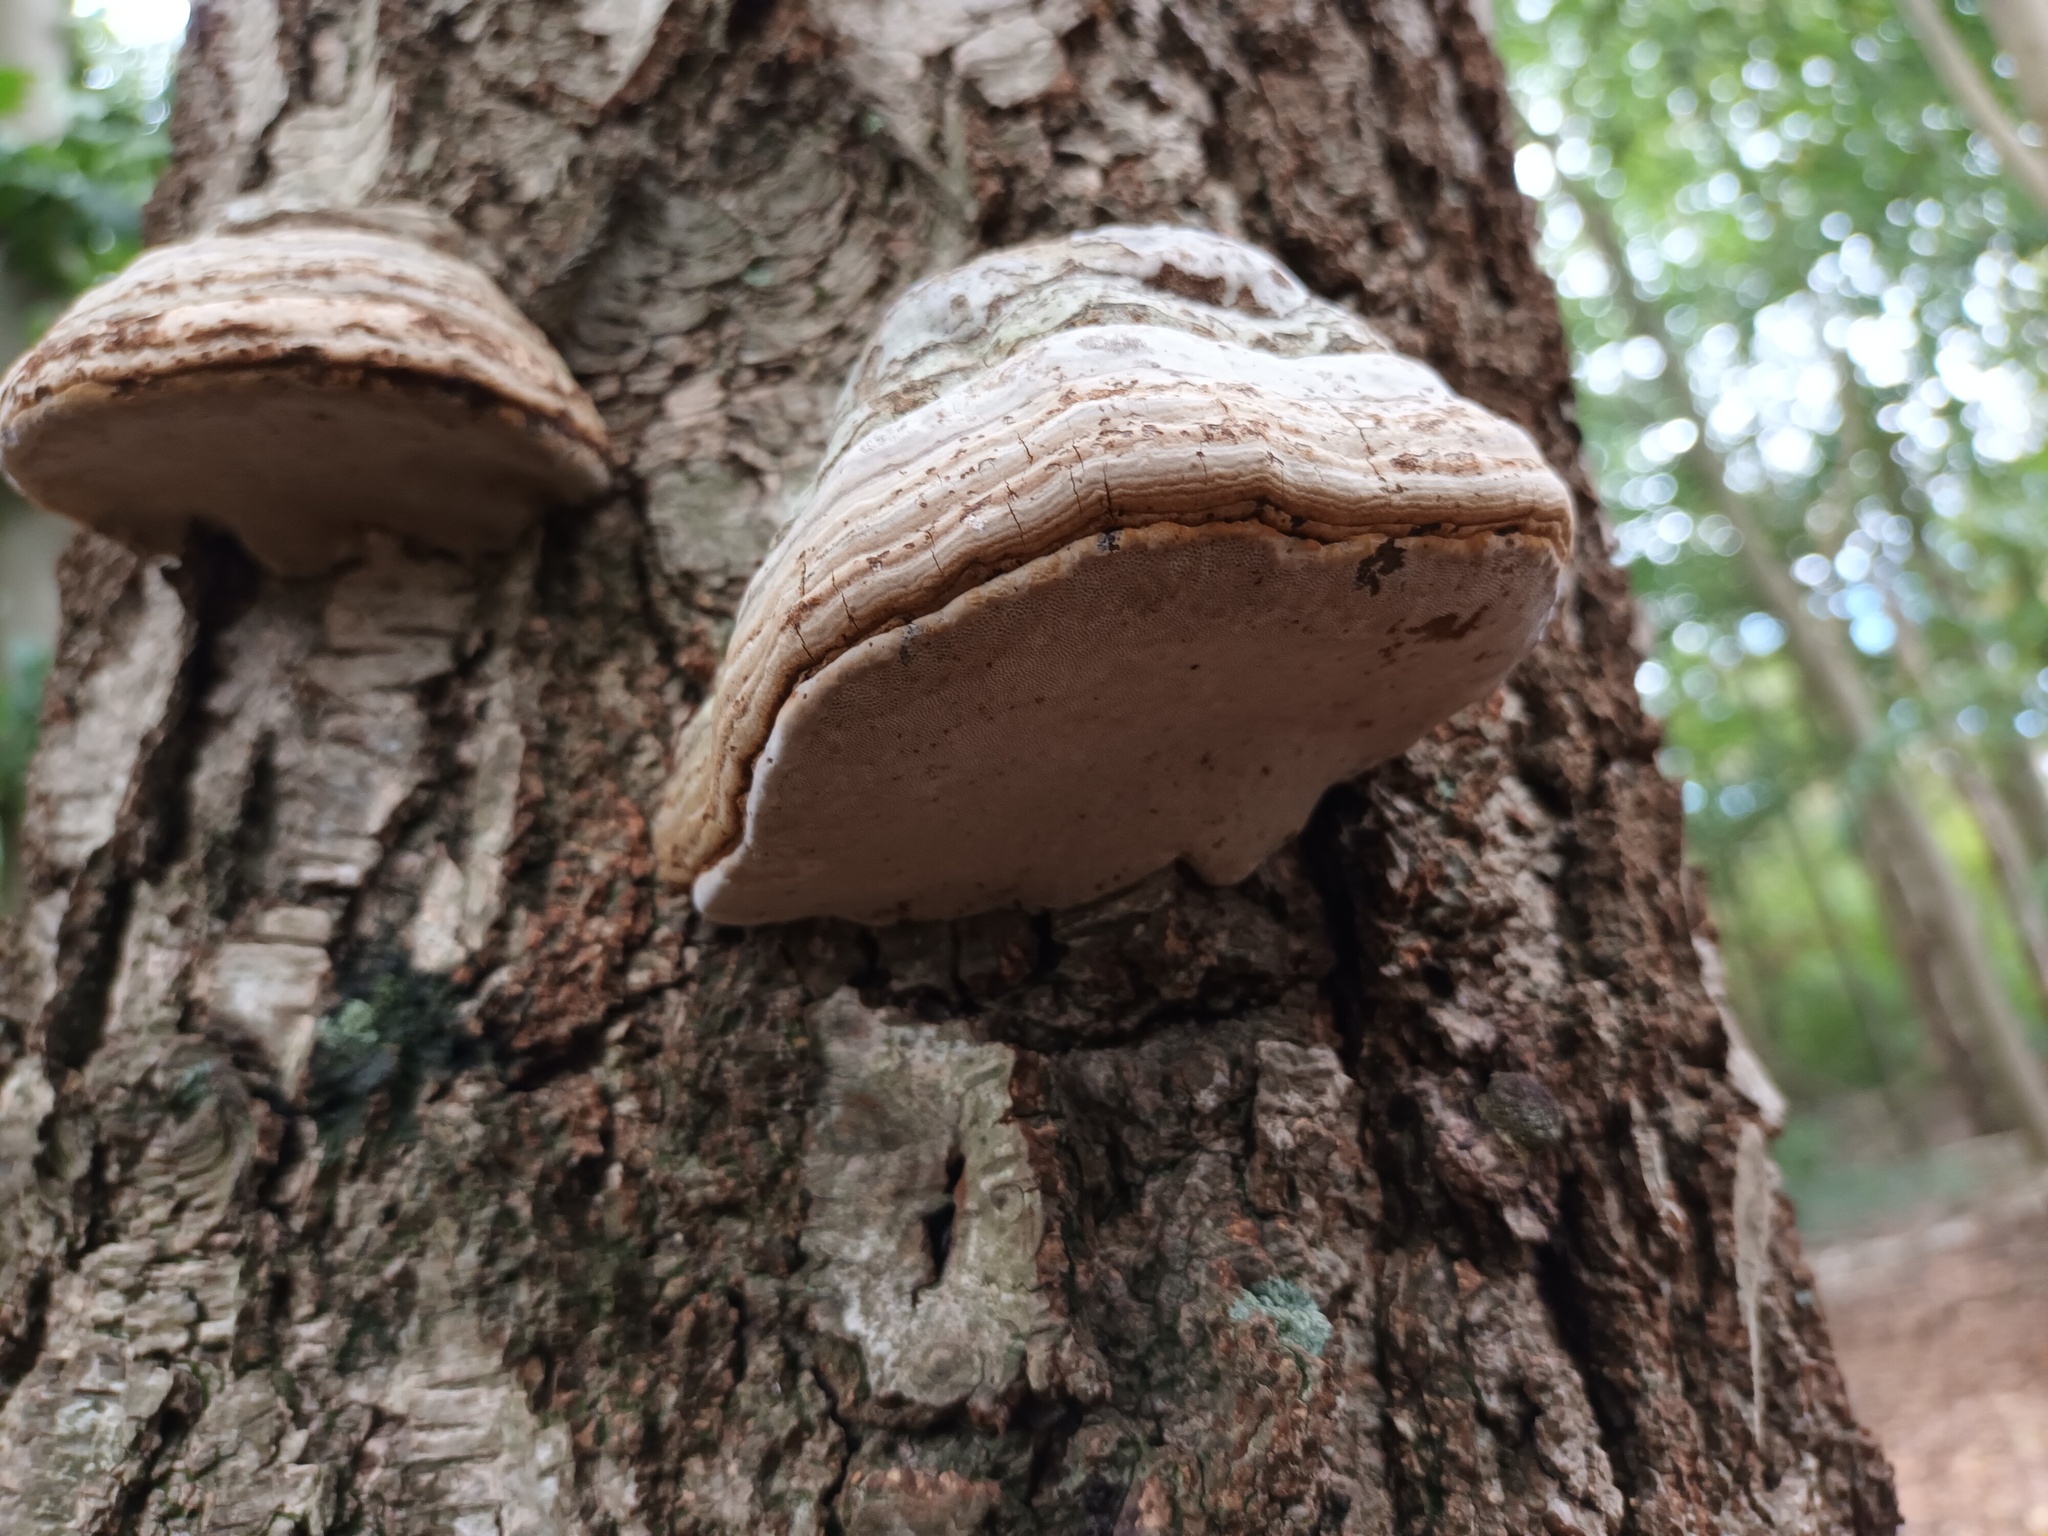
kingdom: Fungi
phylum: Basidiomycota
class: Agaricomycetes
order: Polyporales
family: Polyporaceae
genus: Fomes
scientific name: Fomes fomentarius
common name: Hoof fungus
